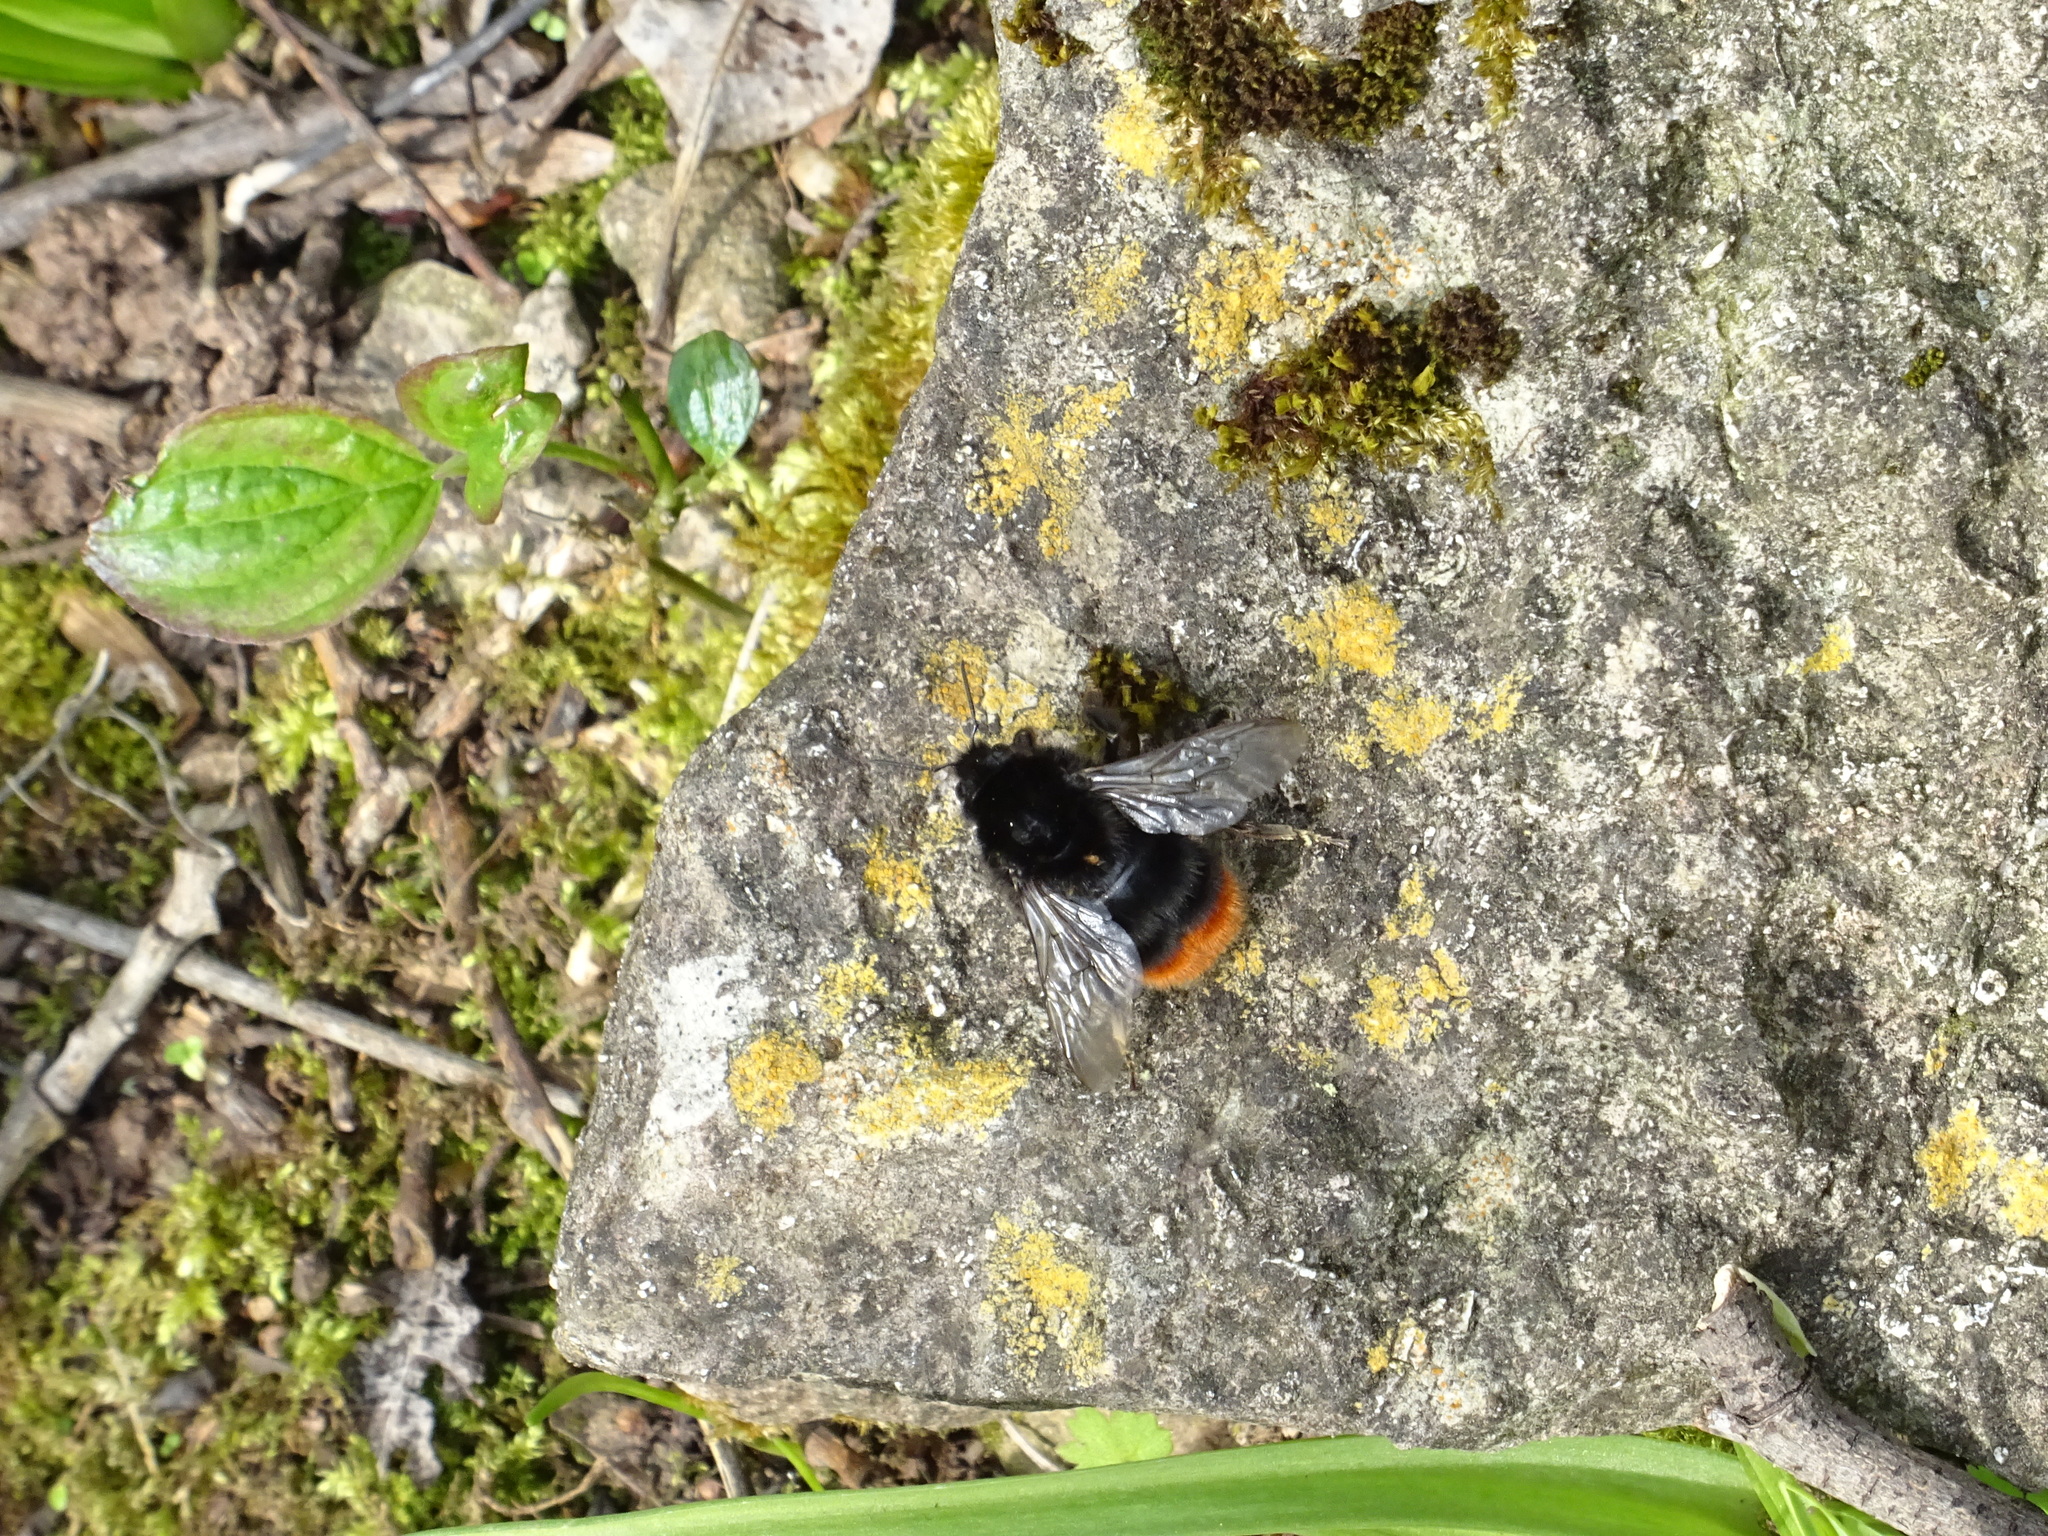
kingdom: Animalia
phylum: Arthropoda
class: Insecta
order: Hymenoptera
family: Apidae
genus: Bombus
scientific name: Bombus lapidarius
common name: Large red-tailed humble-bee
